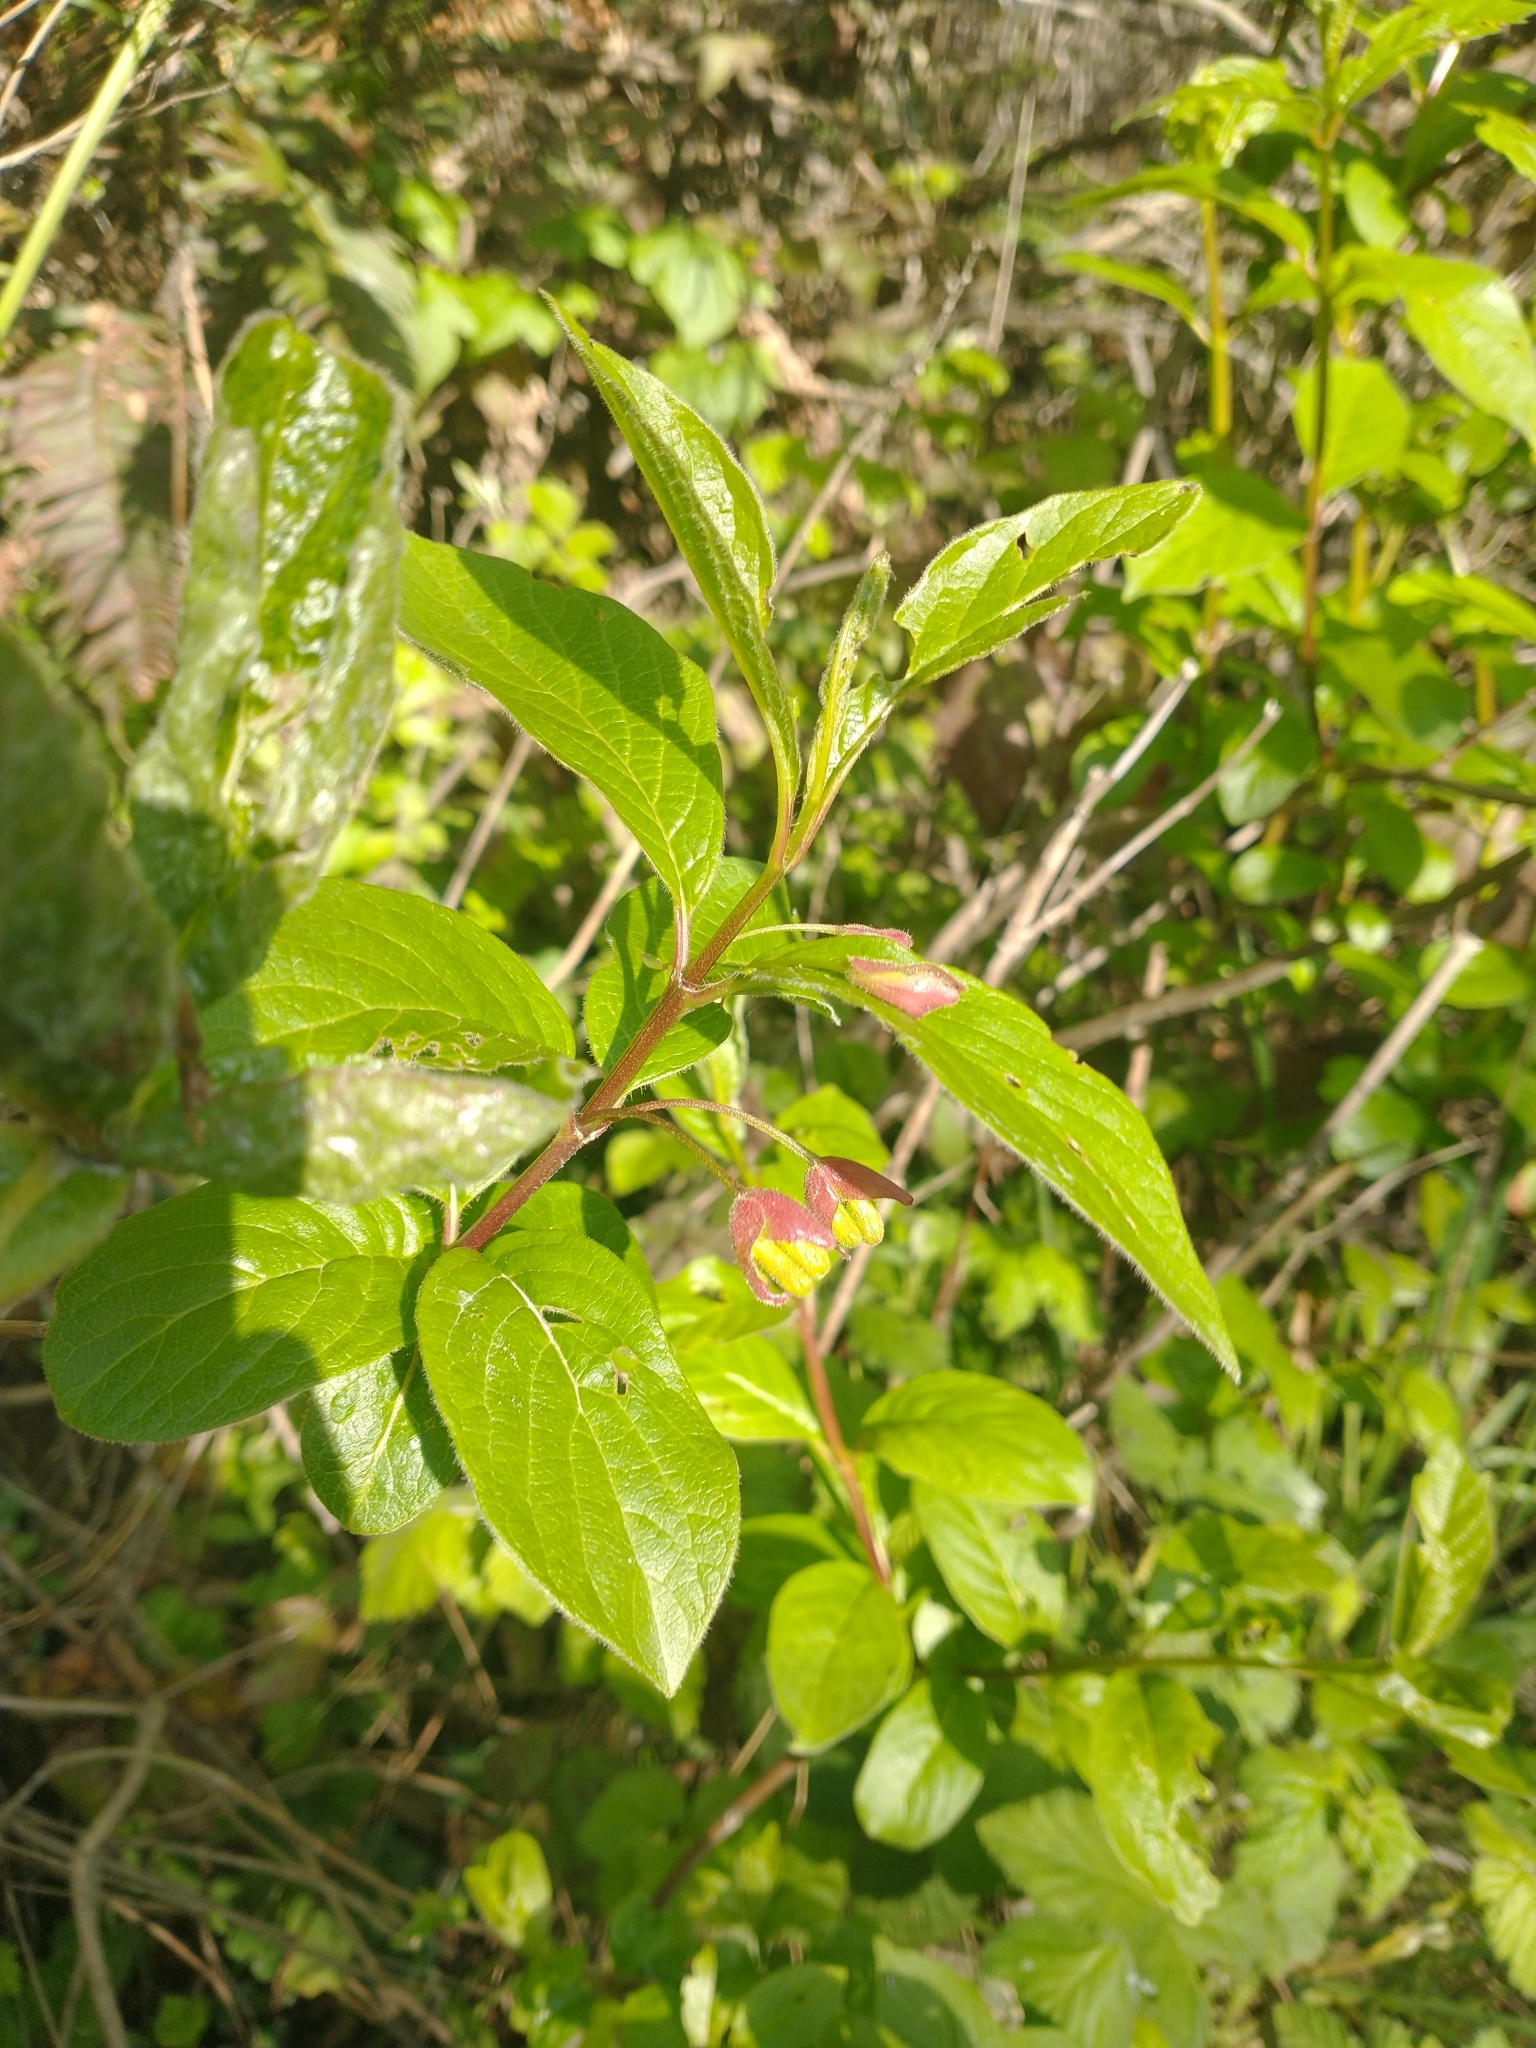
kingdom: Plantae
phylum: Tracheophyta
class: Magnoliopsida
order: Dipsacales
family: Caprifoliaceae
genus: Lonicera
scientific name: Lonicera involucrata
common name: Californian honeysuckle
